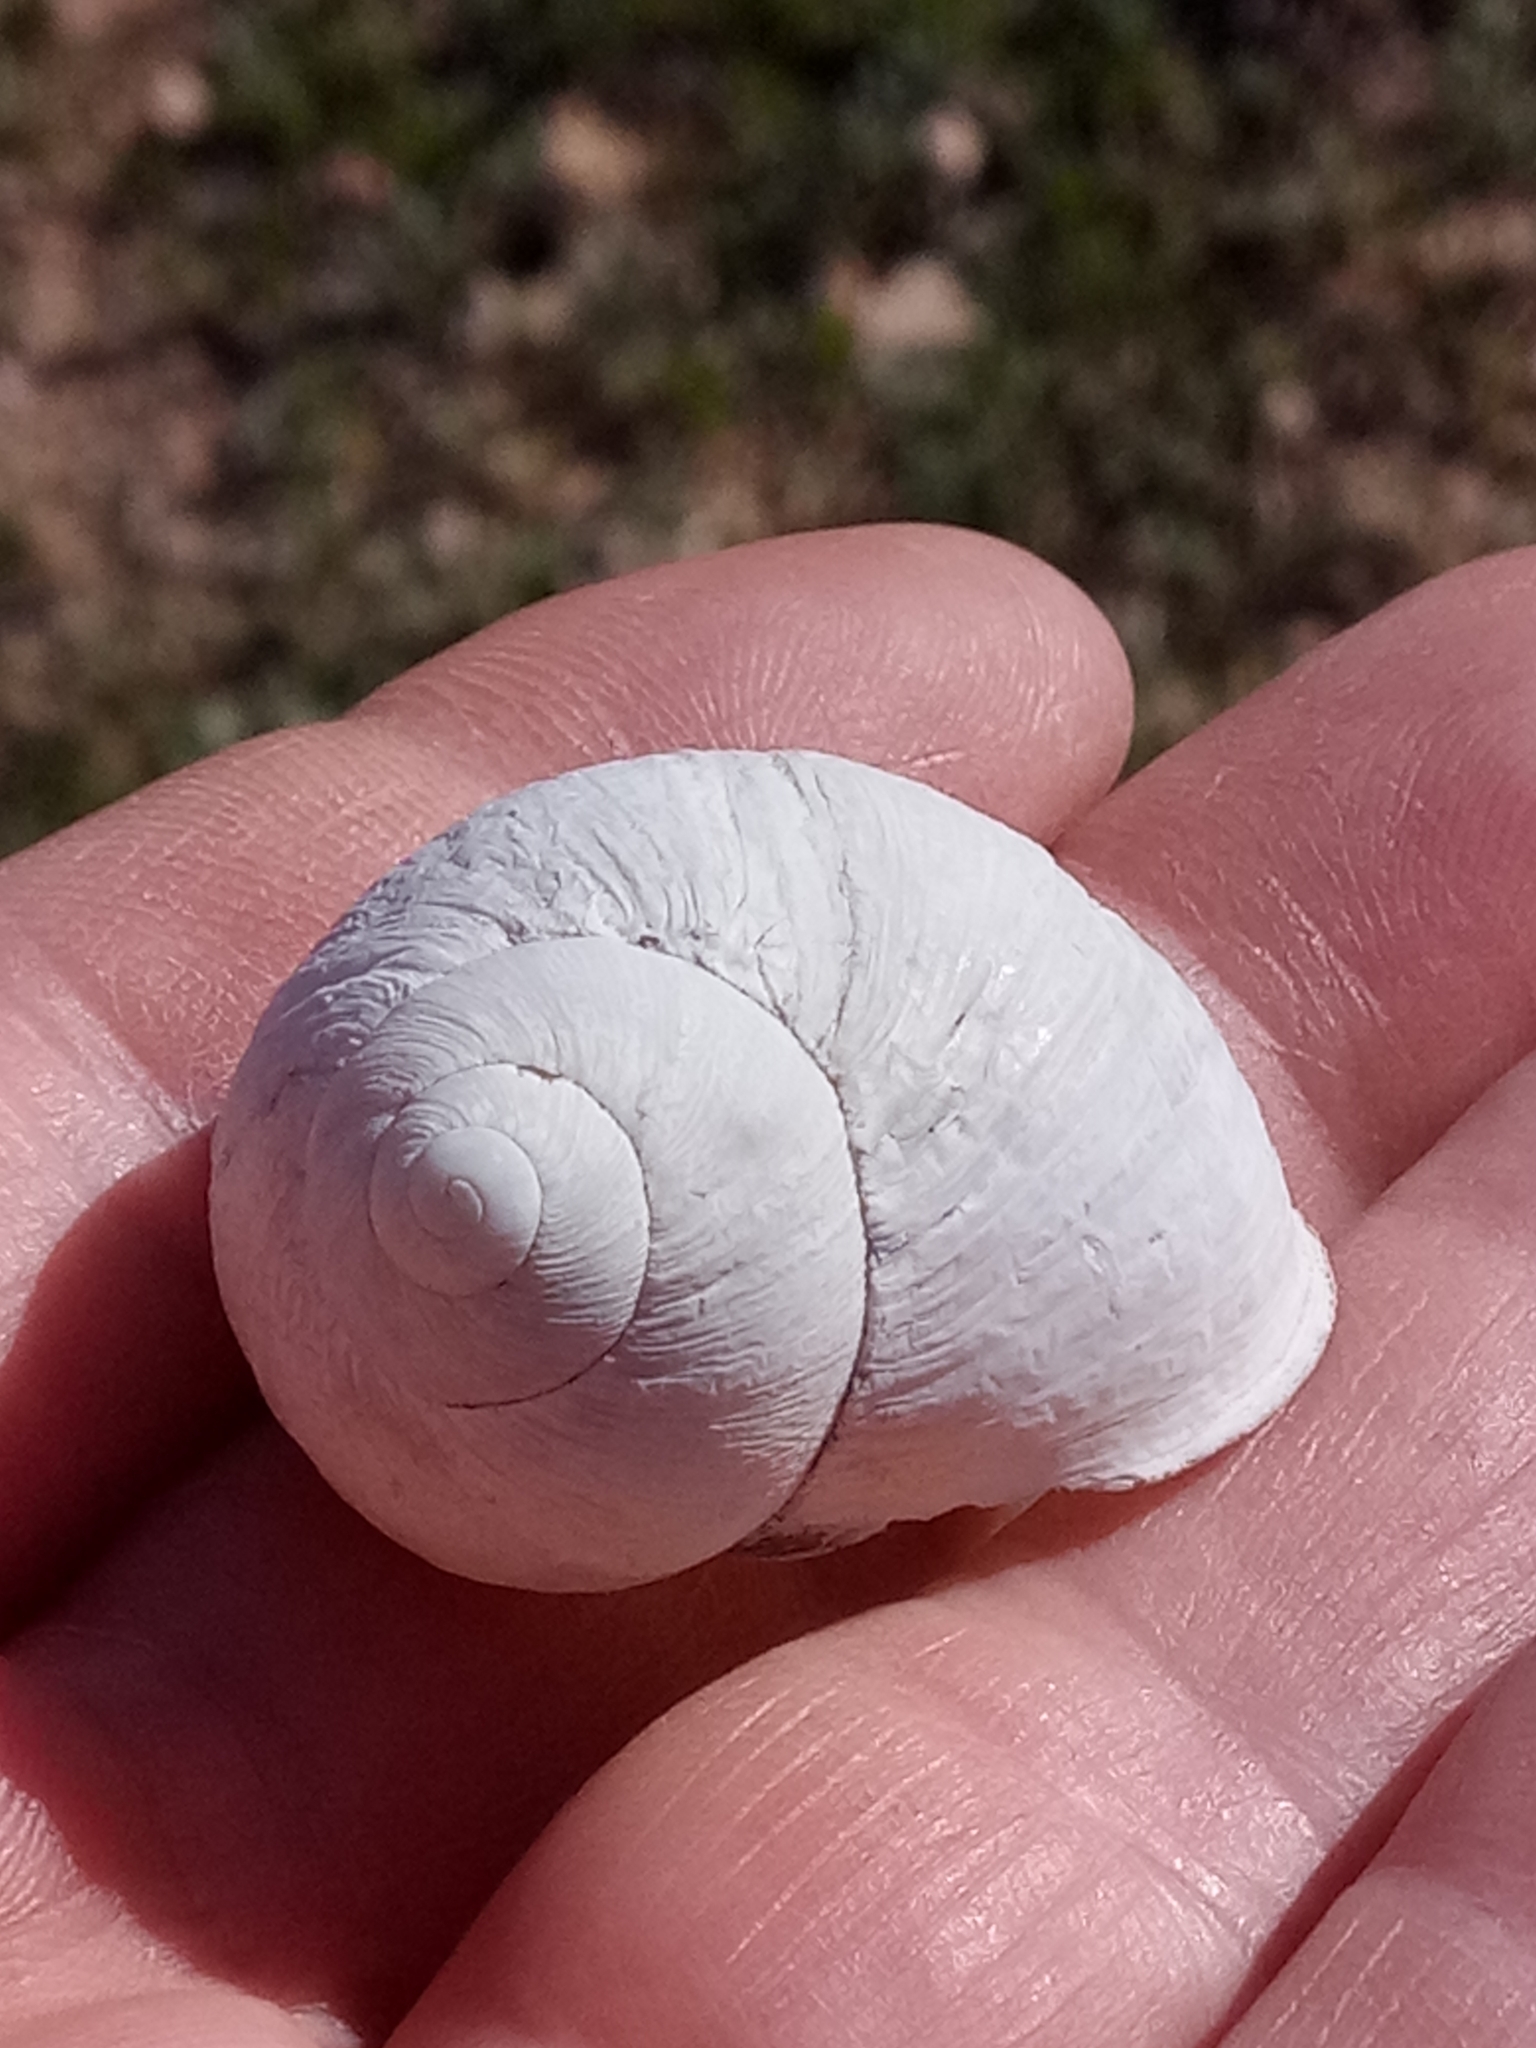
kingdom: Animalia
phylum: Mollusca
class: Gastropoda
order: Stylommatophora
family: Helicidae
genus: Cornu
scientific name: Cornu aspersum
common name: Brown garden snail
